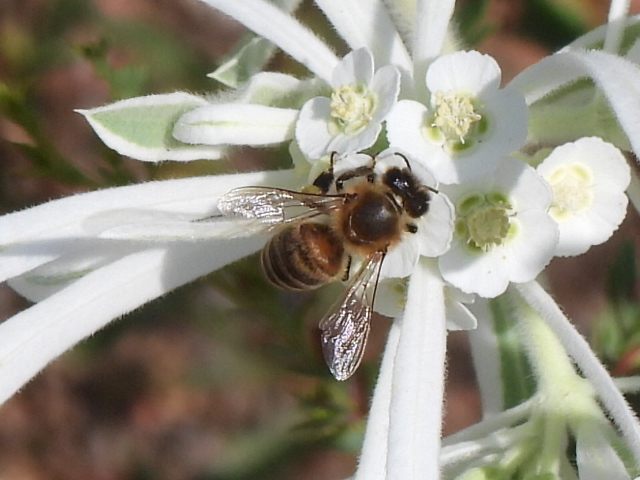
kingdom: Animalia
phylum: Arthropoda
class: Insecta
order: Hymenoptera
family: Apidae
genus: Apis
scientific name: Apis mellifera
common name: Honey bee
